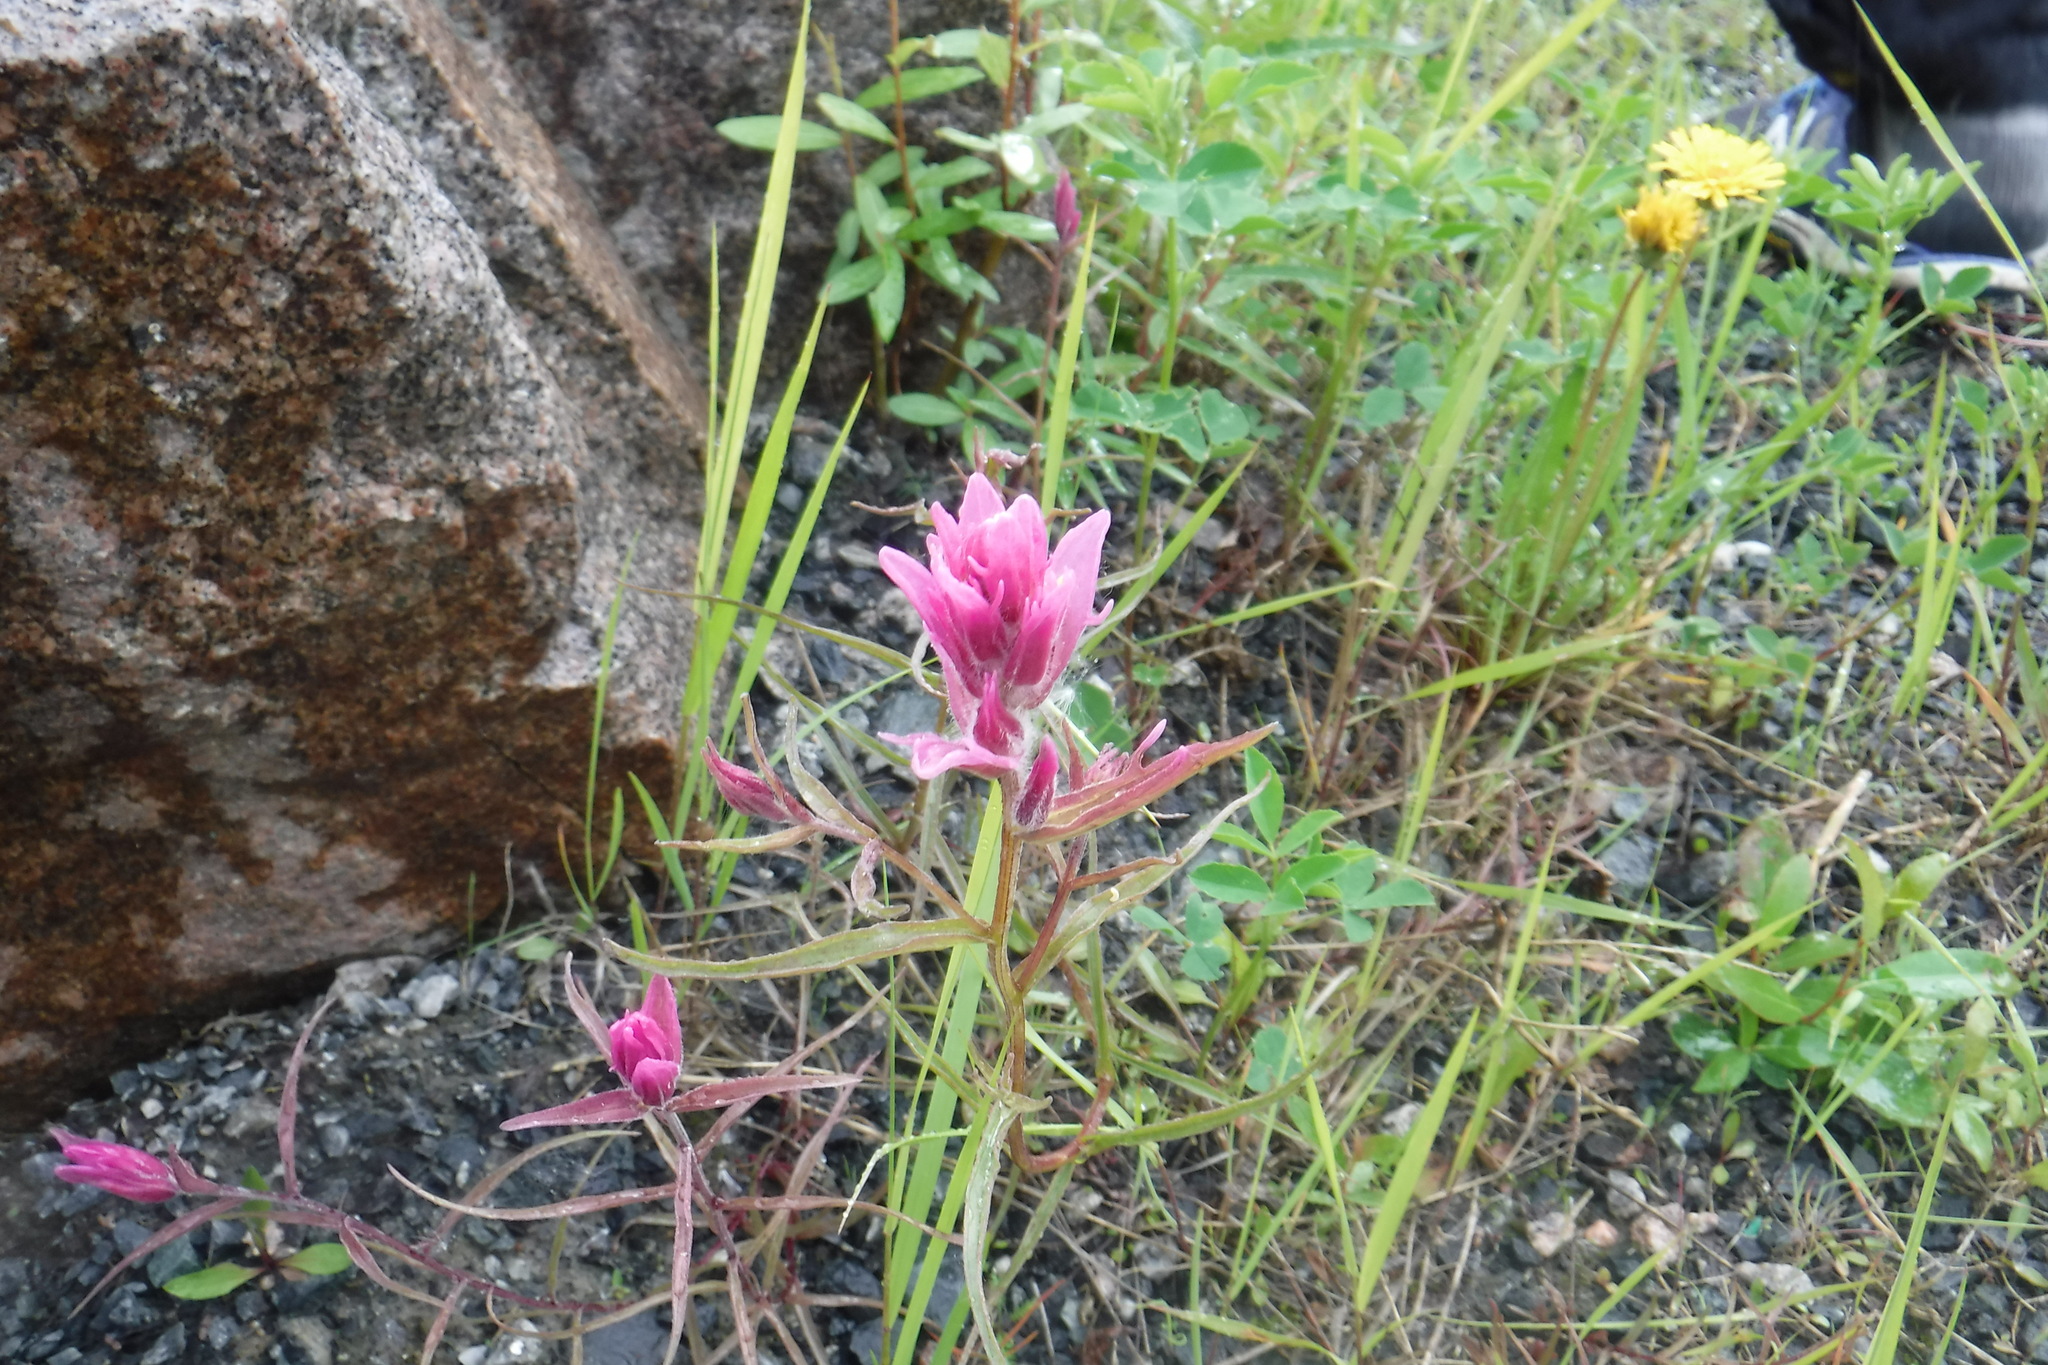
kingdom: Plantae
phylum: Tracheophyta
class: Magnoliopsida
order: Lamiales
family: Orobanchaceae
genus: Castilleja
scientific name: Castilleja raupii
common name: Raup's paintbrush
